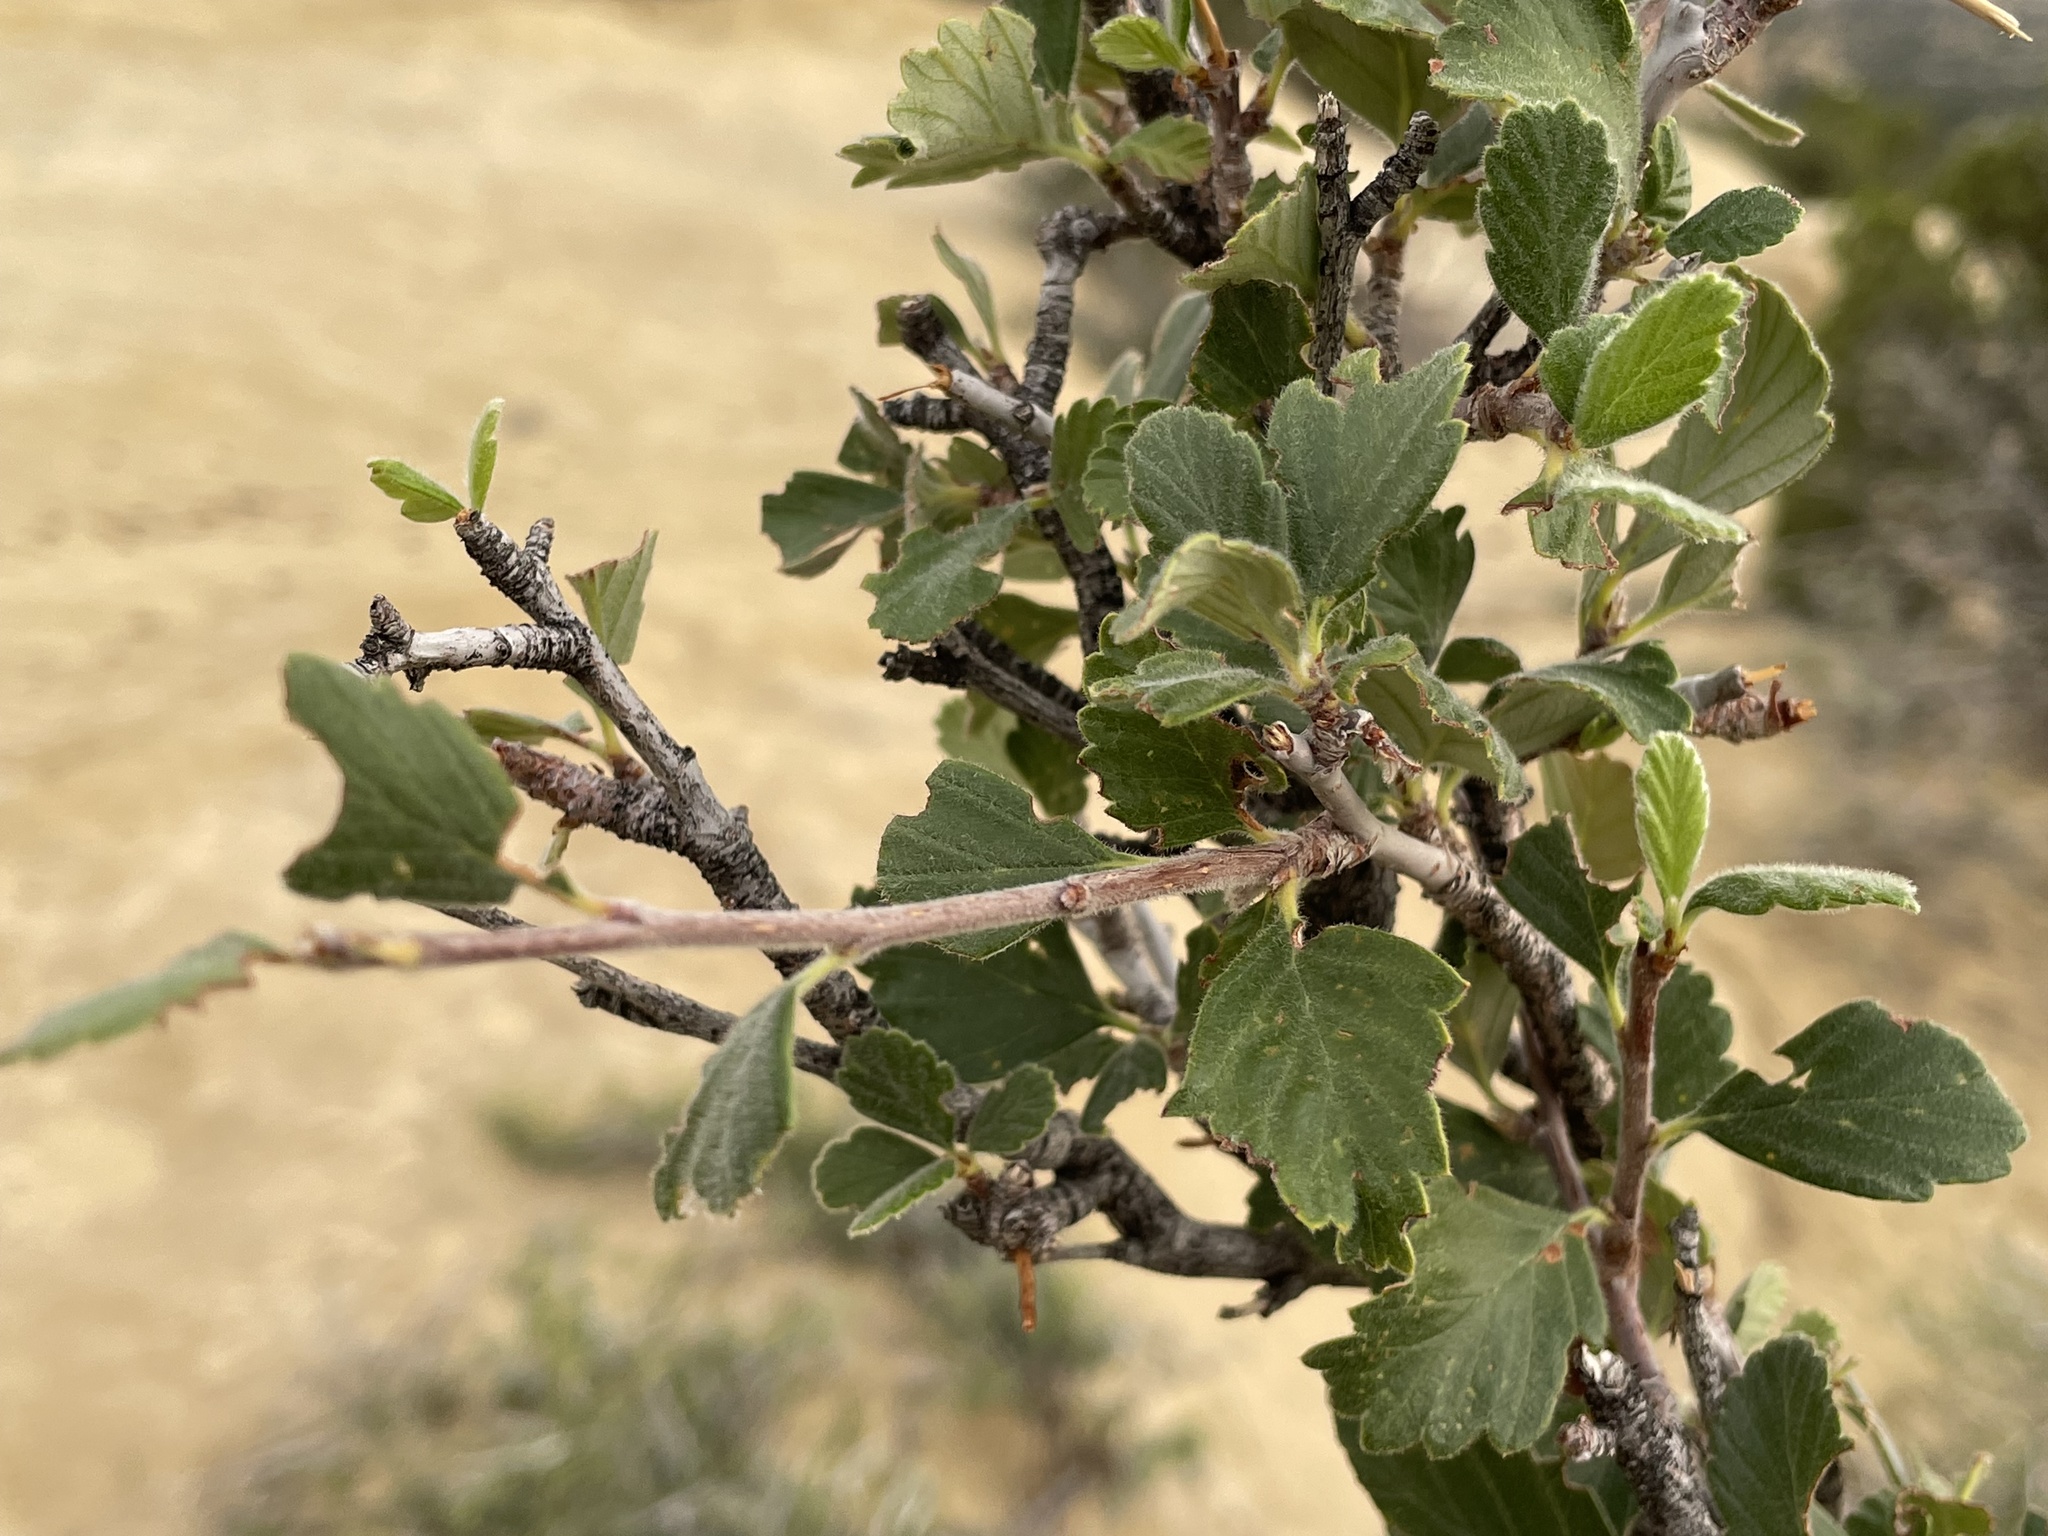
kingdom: Plantae
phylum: Tracheophyta
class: Magnoliopsida
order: Rosales
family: Rosaceae
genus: Cercocarpus
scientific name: Cercocarpus montanus
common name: Alder-leaf cercocarpus
